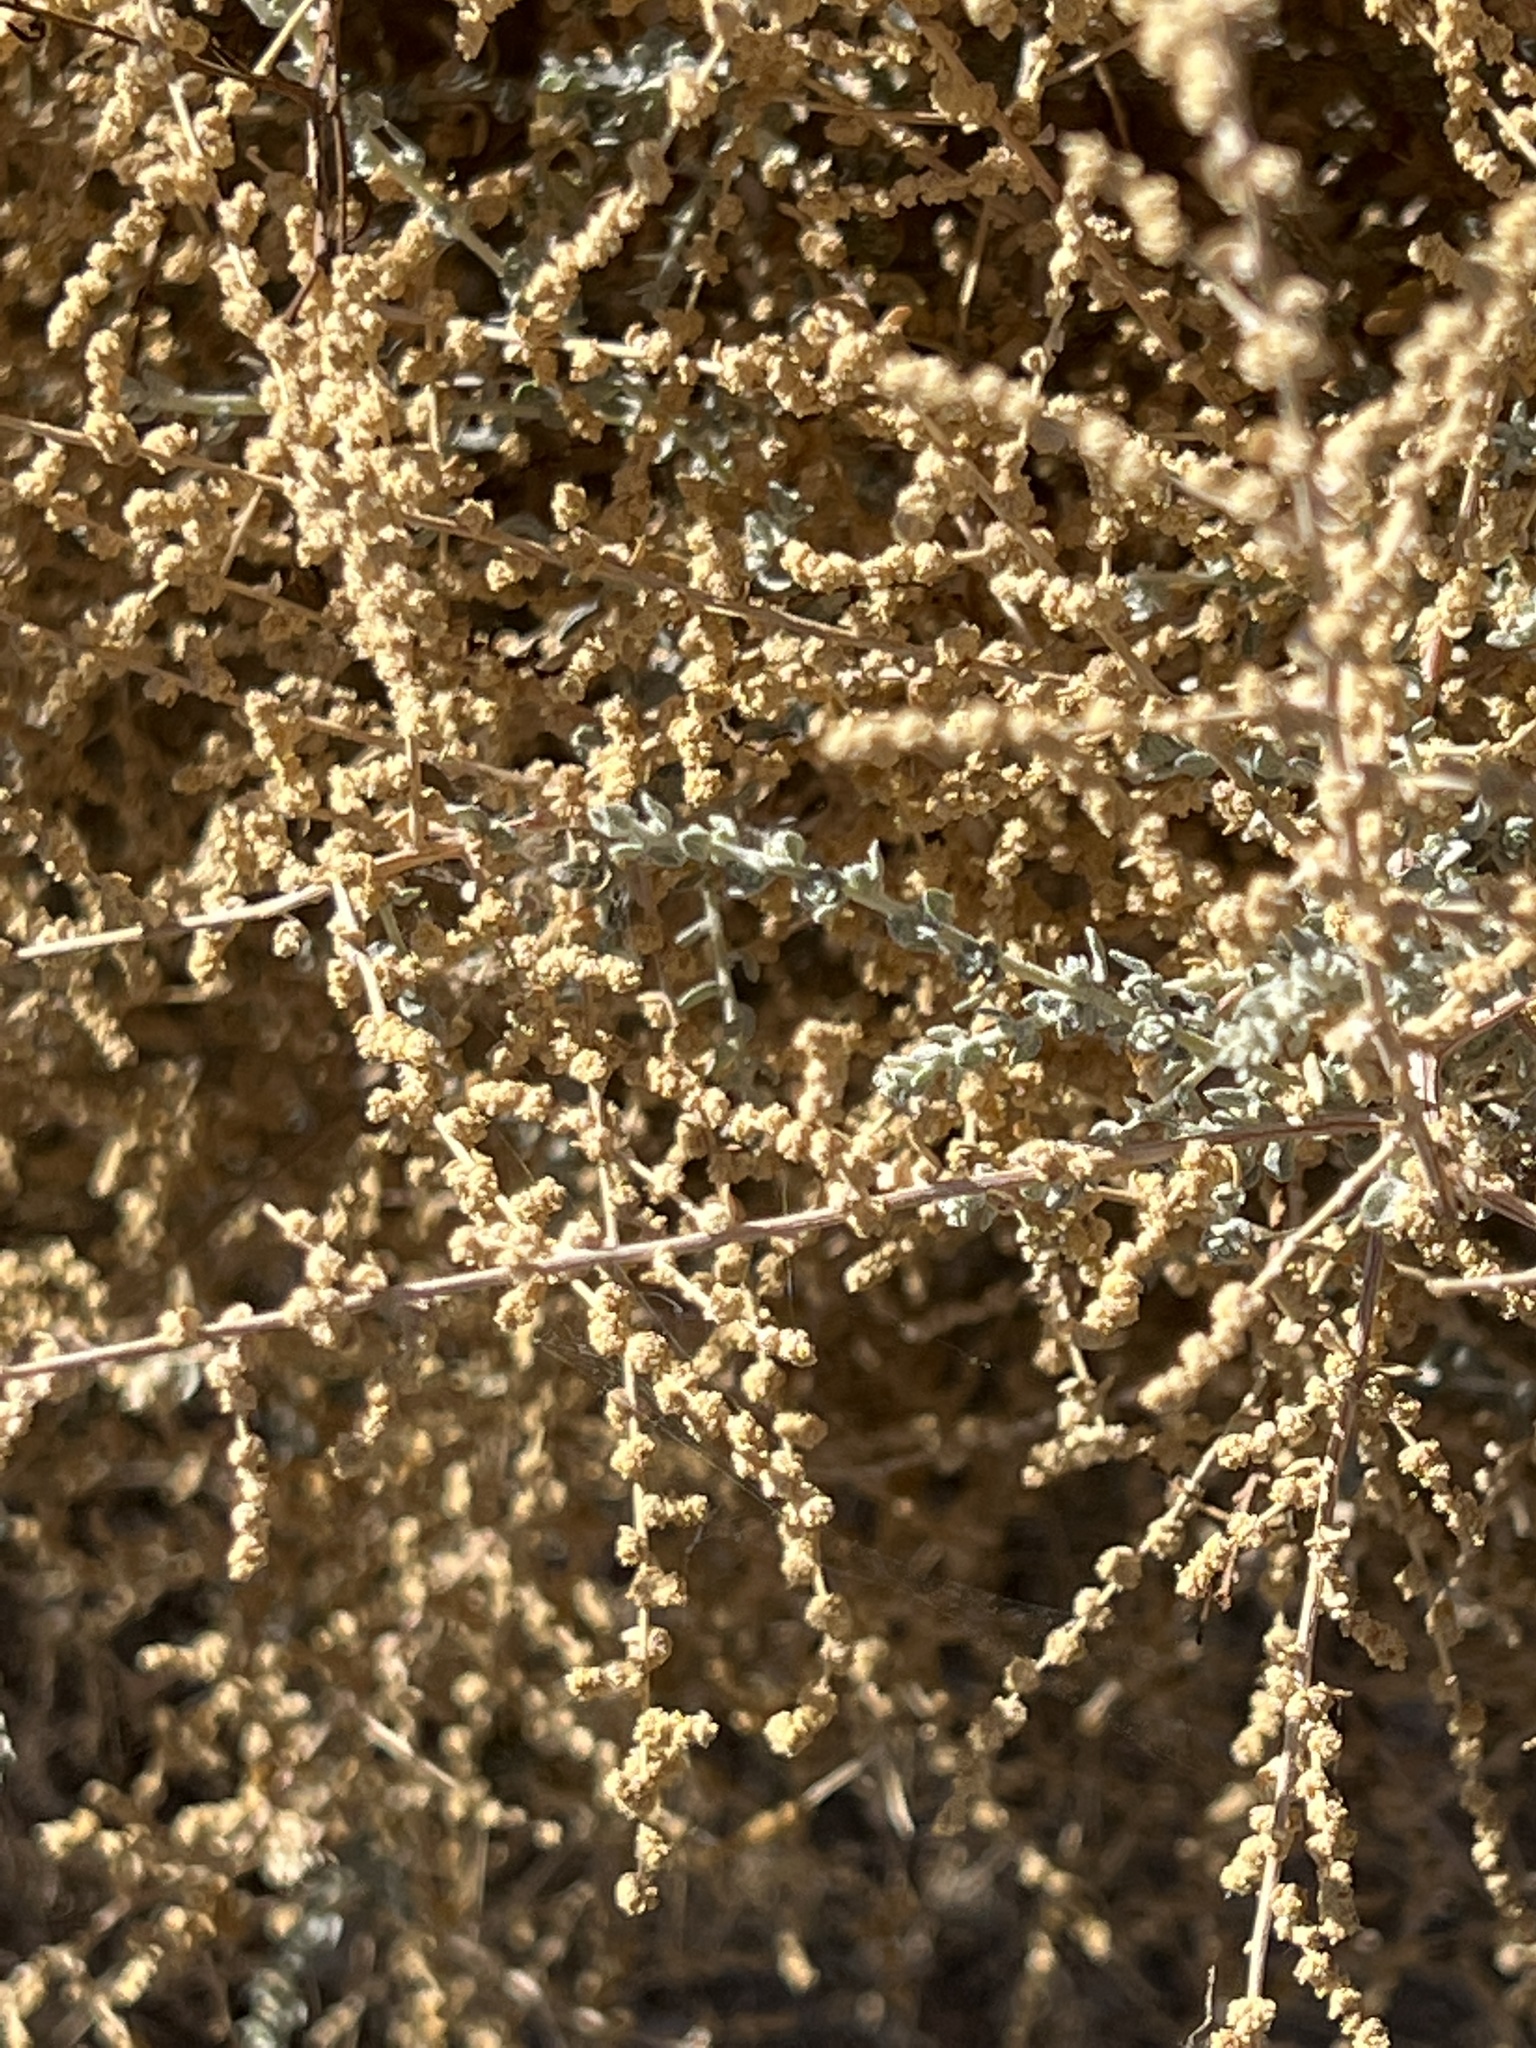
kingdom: Plantae
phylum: Tracheophyta
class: Magnoliopsida
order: Caryophyllales
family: Amaranthaceae
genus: Atriplex
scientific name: Atriplex polycarpa
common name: Desert saltbush
